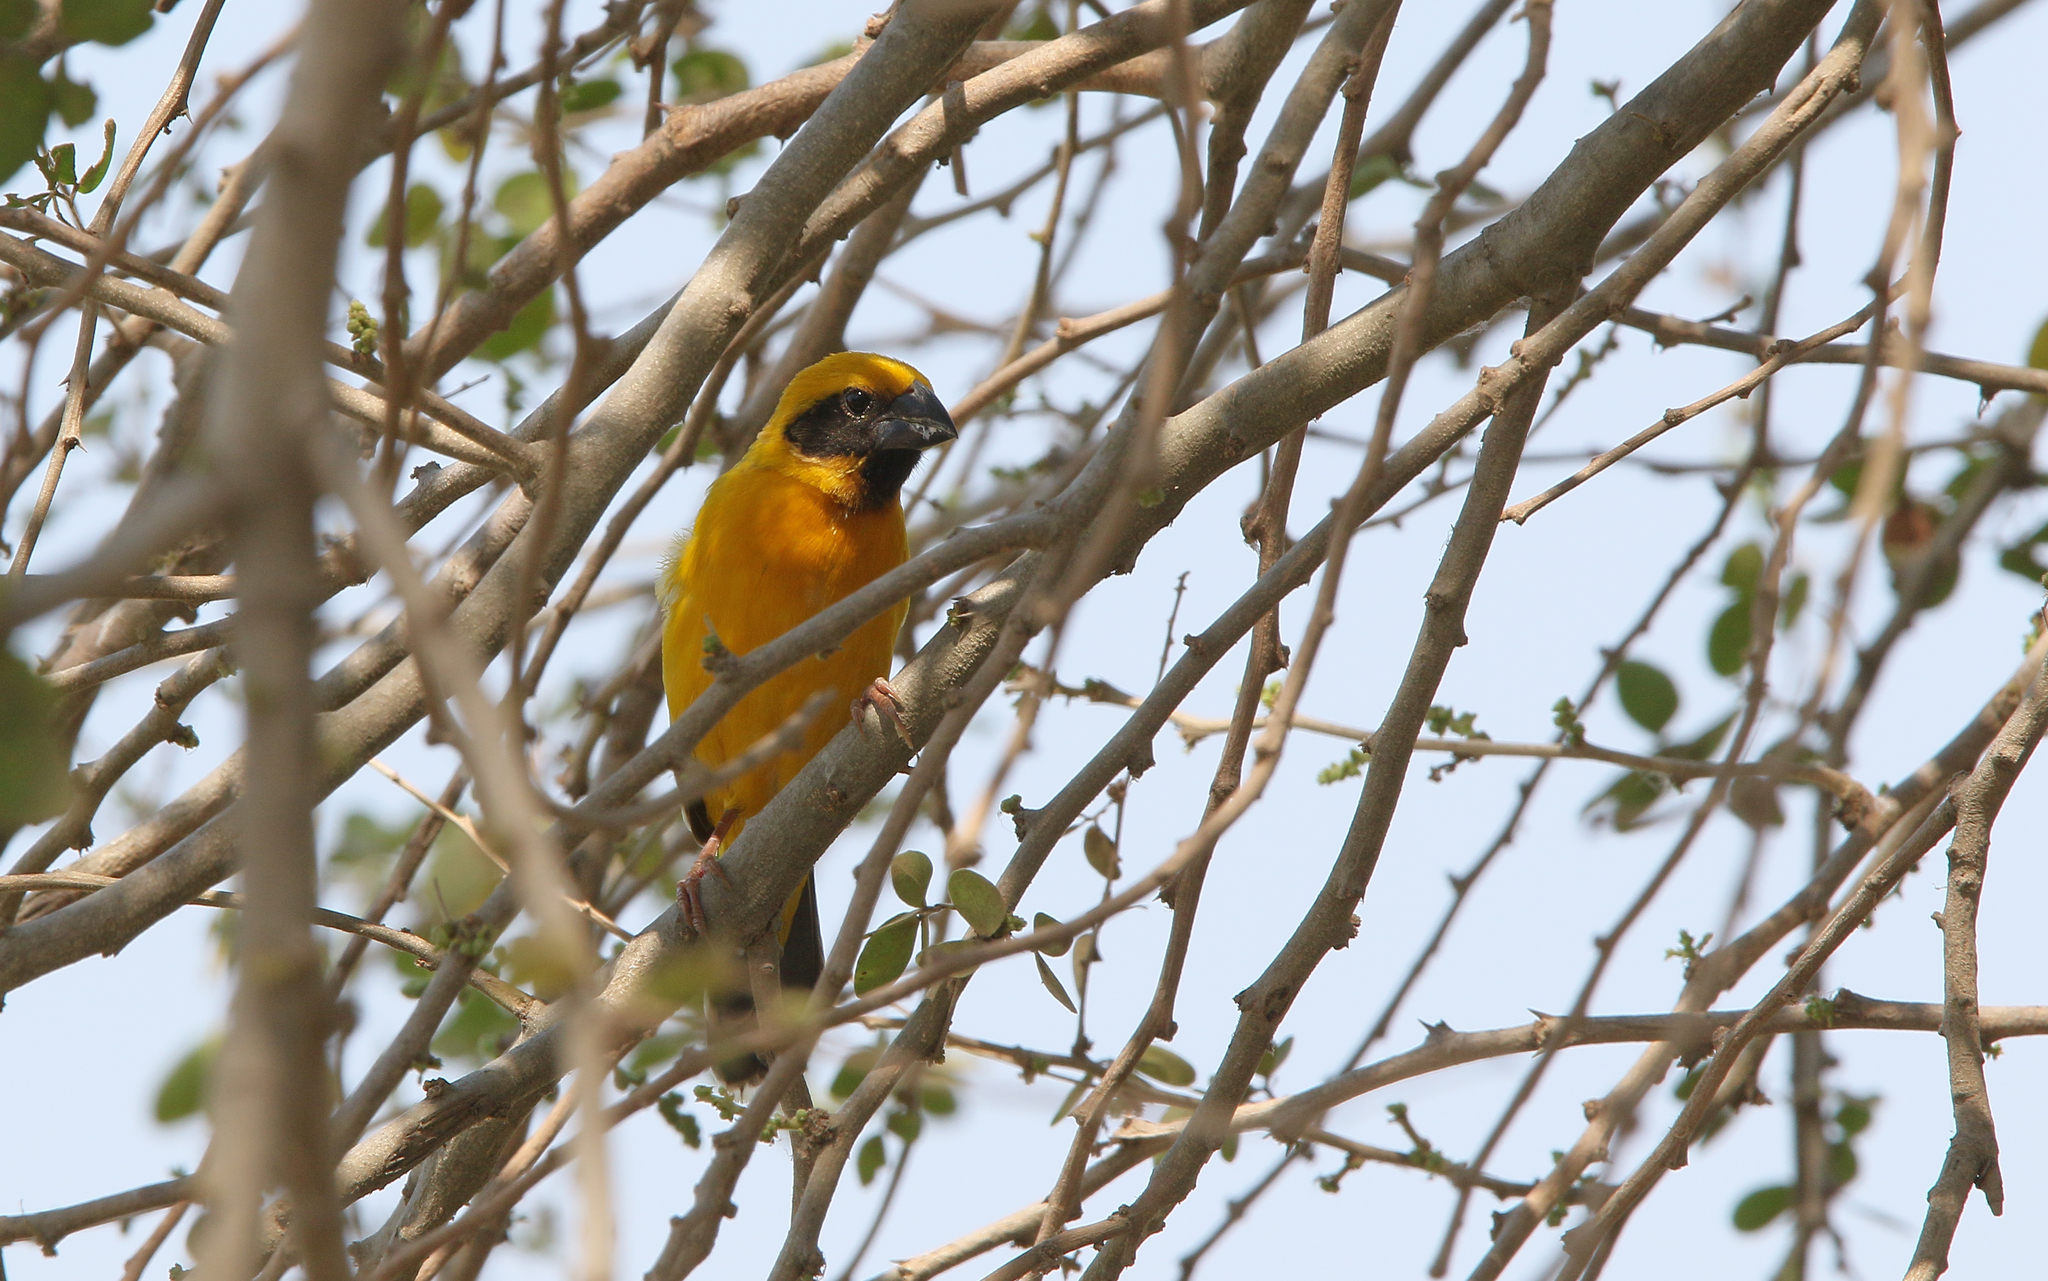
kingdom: Animalia
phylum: Chordata
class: Aves
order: Passeriformes
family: Ploceidae
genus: Ploceus
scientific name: Ploceus hypoxanthus
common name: Asian golden weaver
